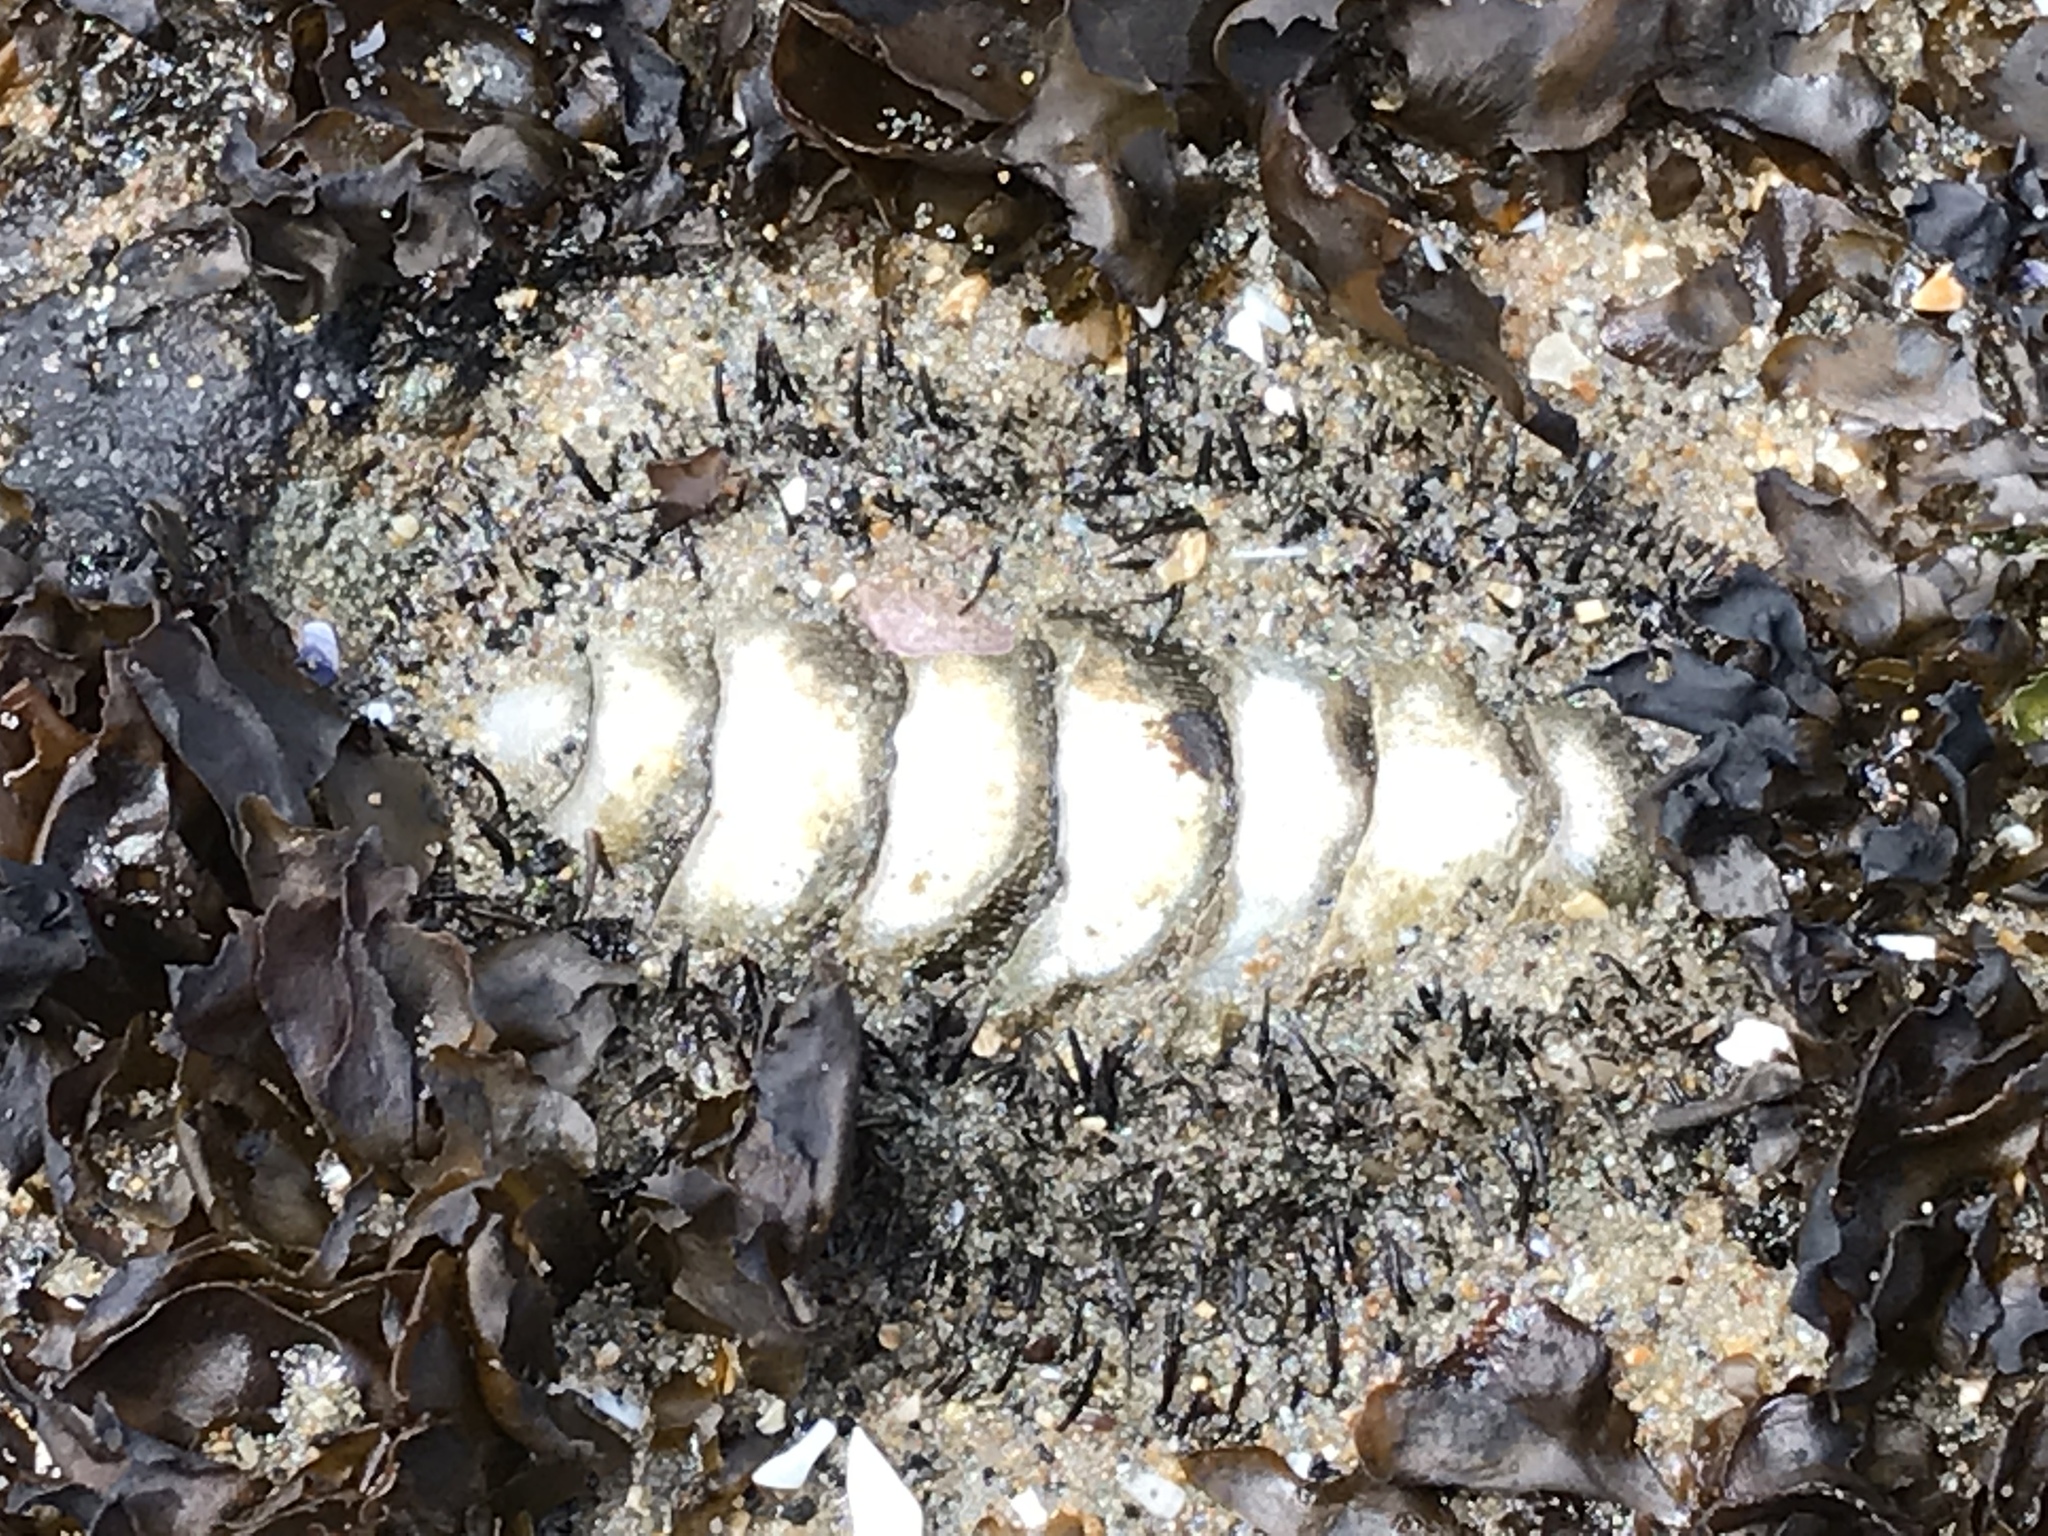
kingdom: Animalia
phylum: Mollusca
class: Polyplacophora
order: Chitonida
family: Mopaliidae
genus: Mopalia
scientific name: Mopalia muscosa
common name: Mossy chiton
